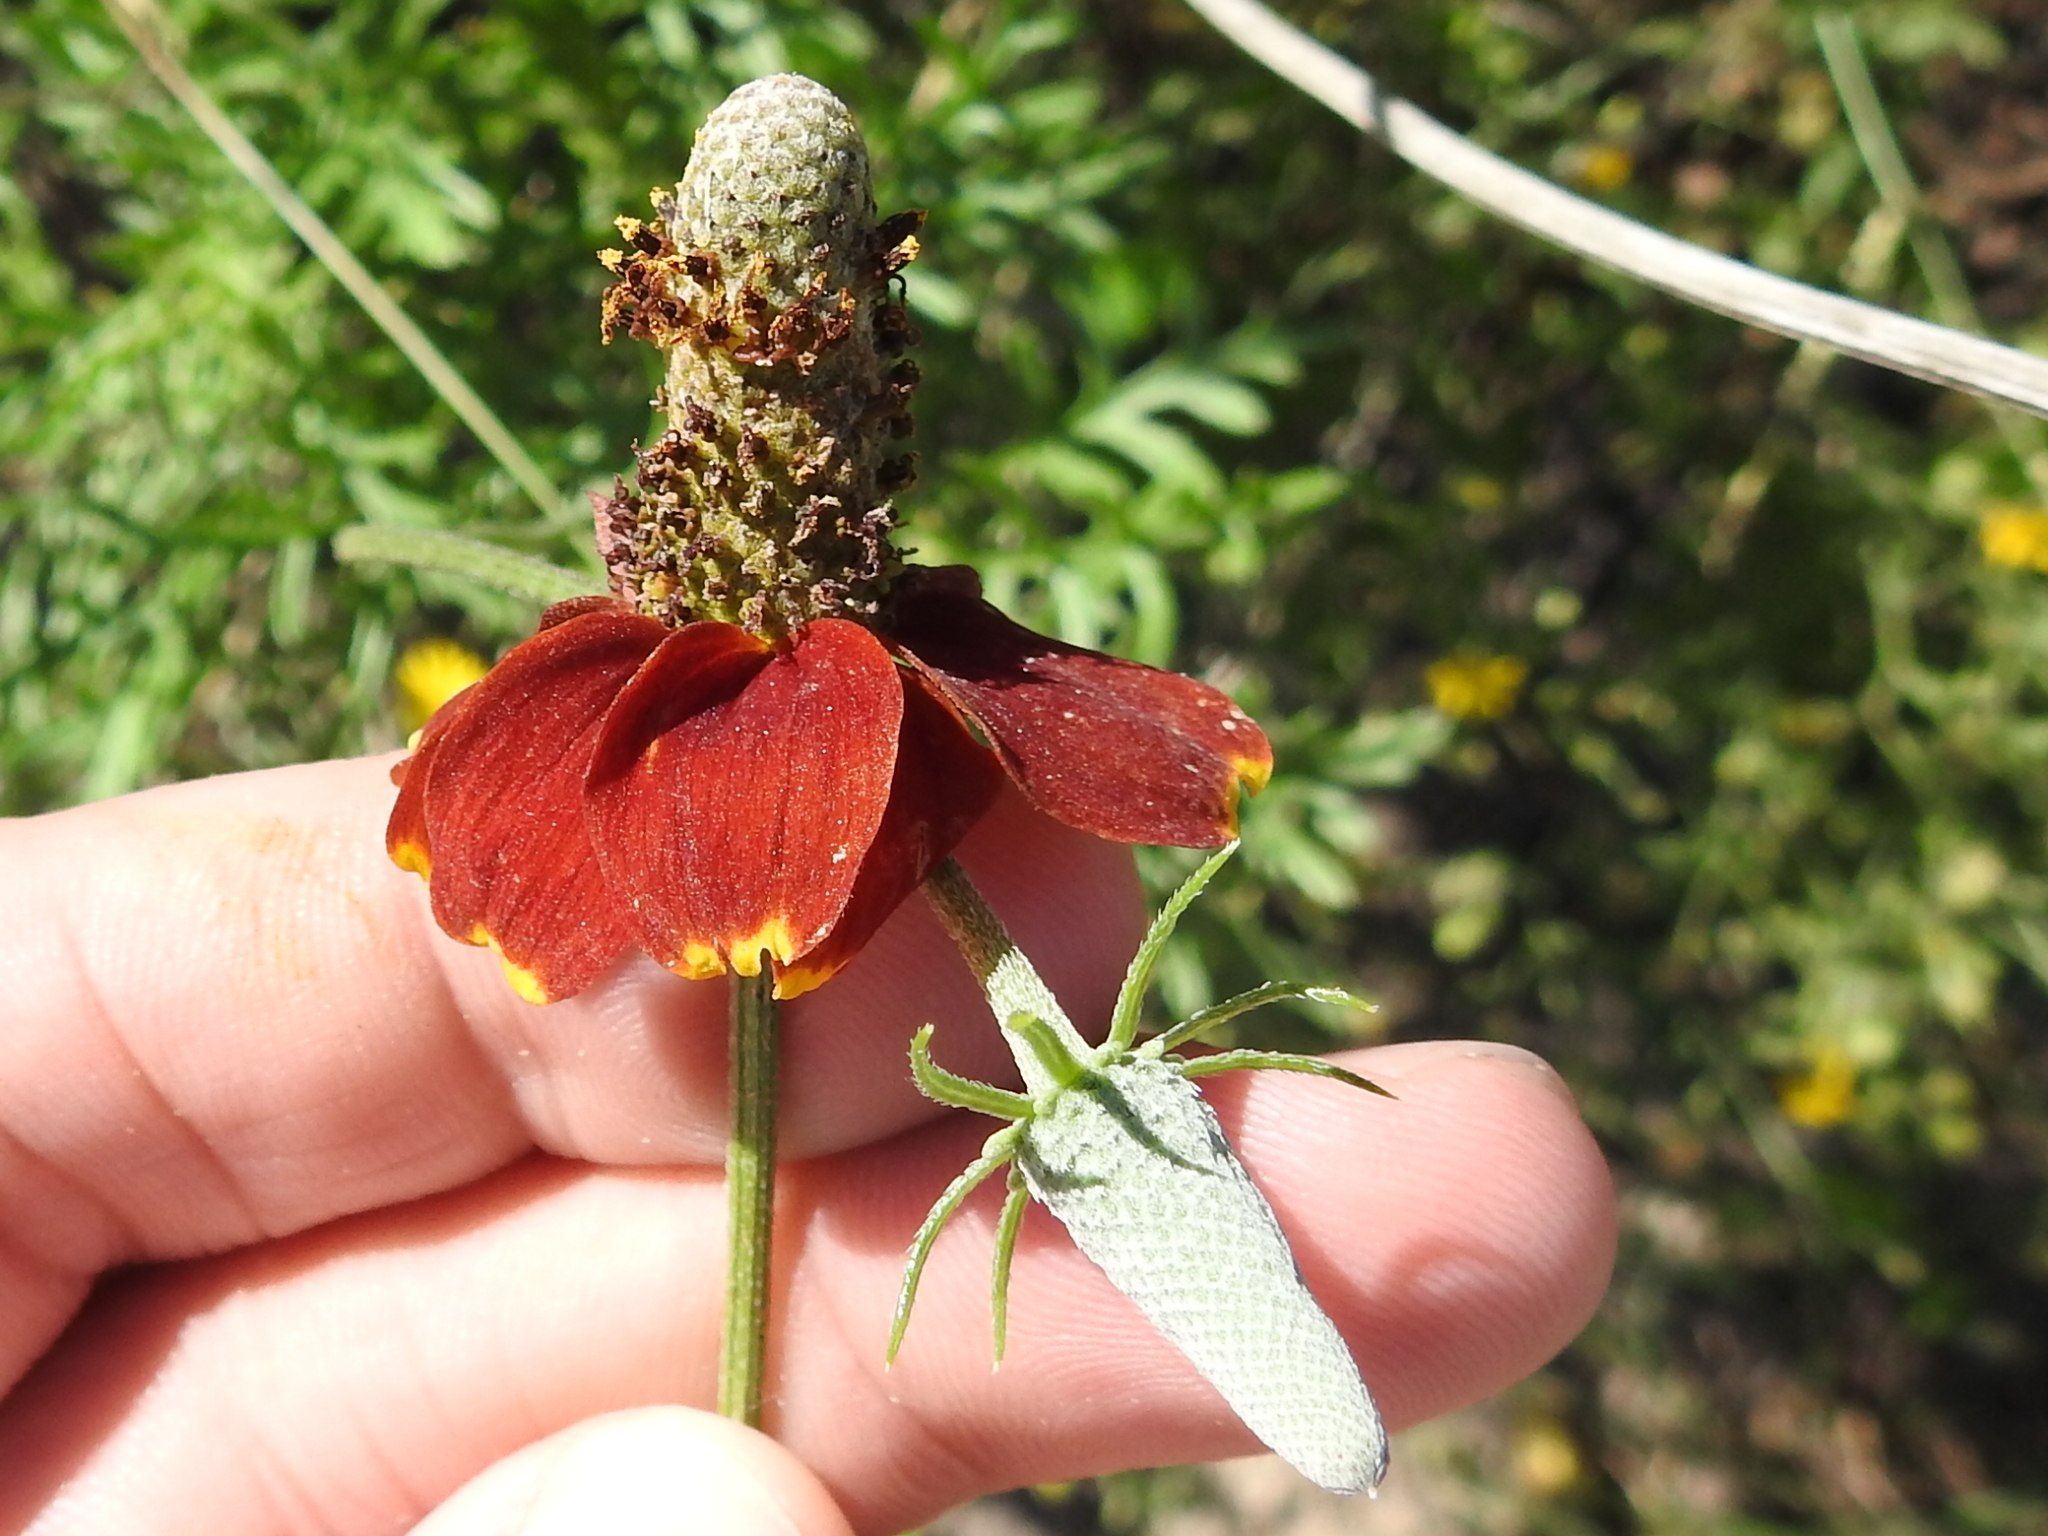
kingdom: Plantae
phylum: Tracheophyta
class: Magnoliopsida
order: Asterales
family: Asteraceae
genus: Ratibida
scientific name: Ratibida peduncularis
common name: Naked prairie-coneflower
